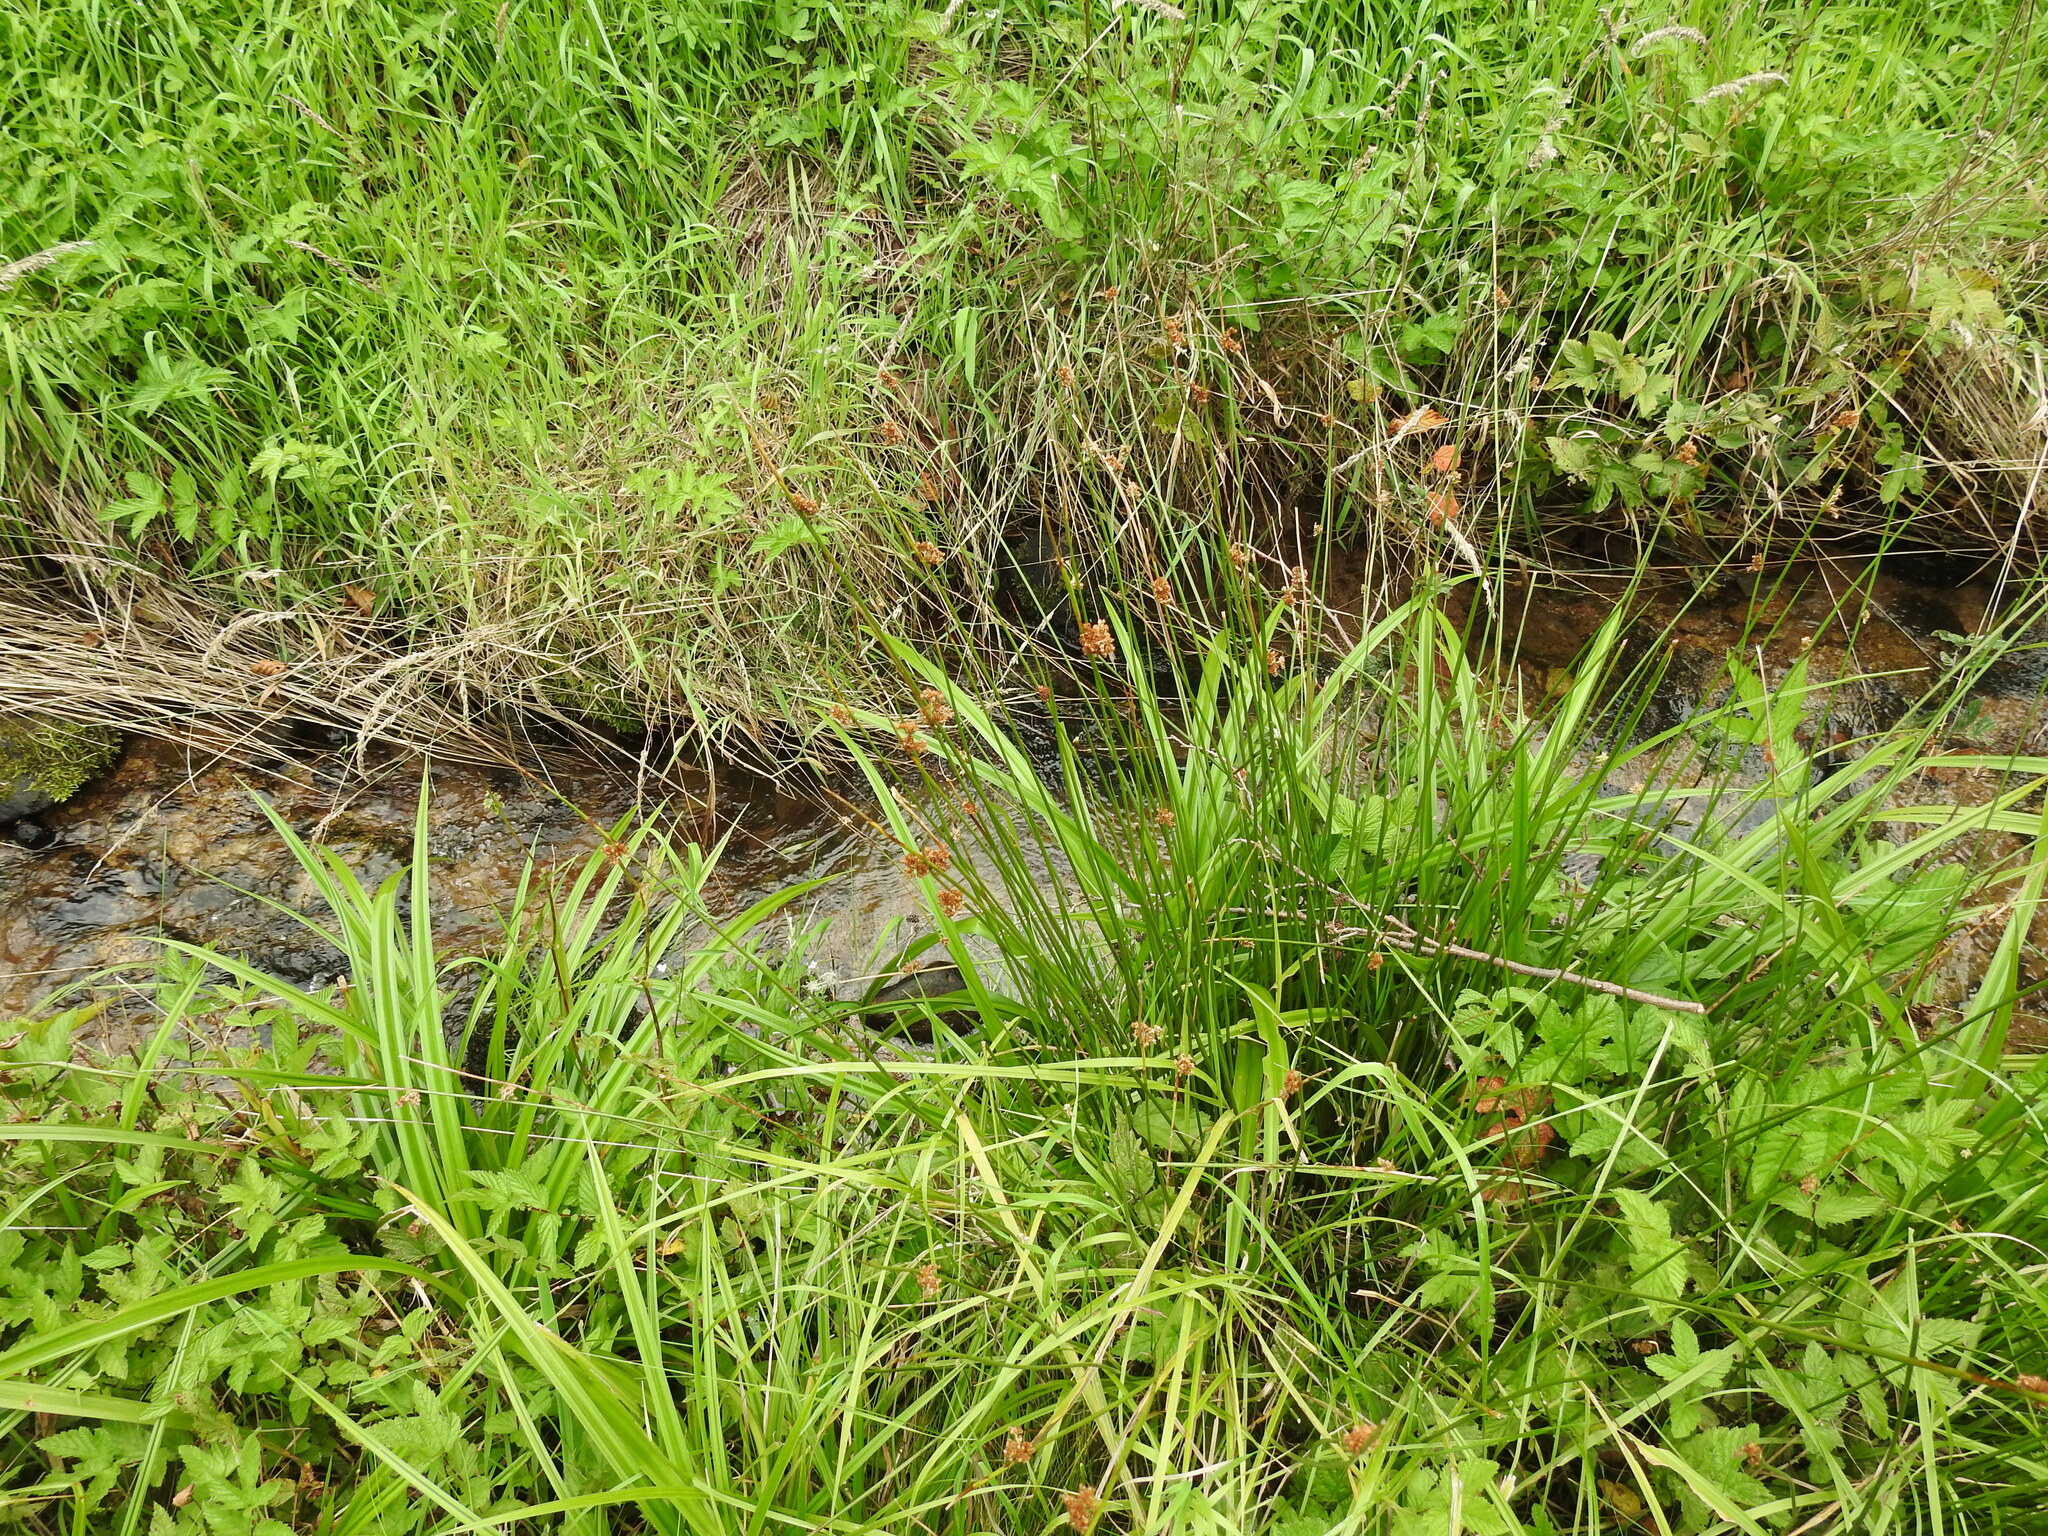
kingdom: Plantae
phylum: Tracheophyta
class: Liliopsida
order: Poales
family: Juncaceae
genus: Juncus
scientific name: Juncus effusus
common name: Soft rush
